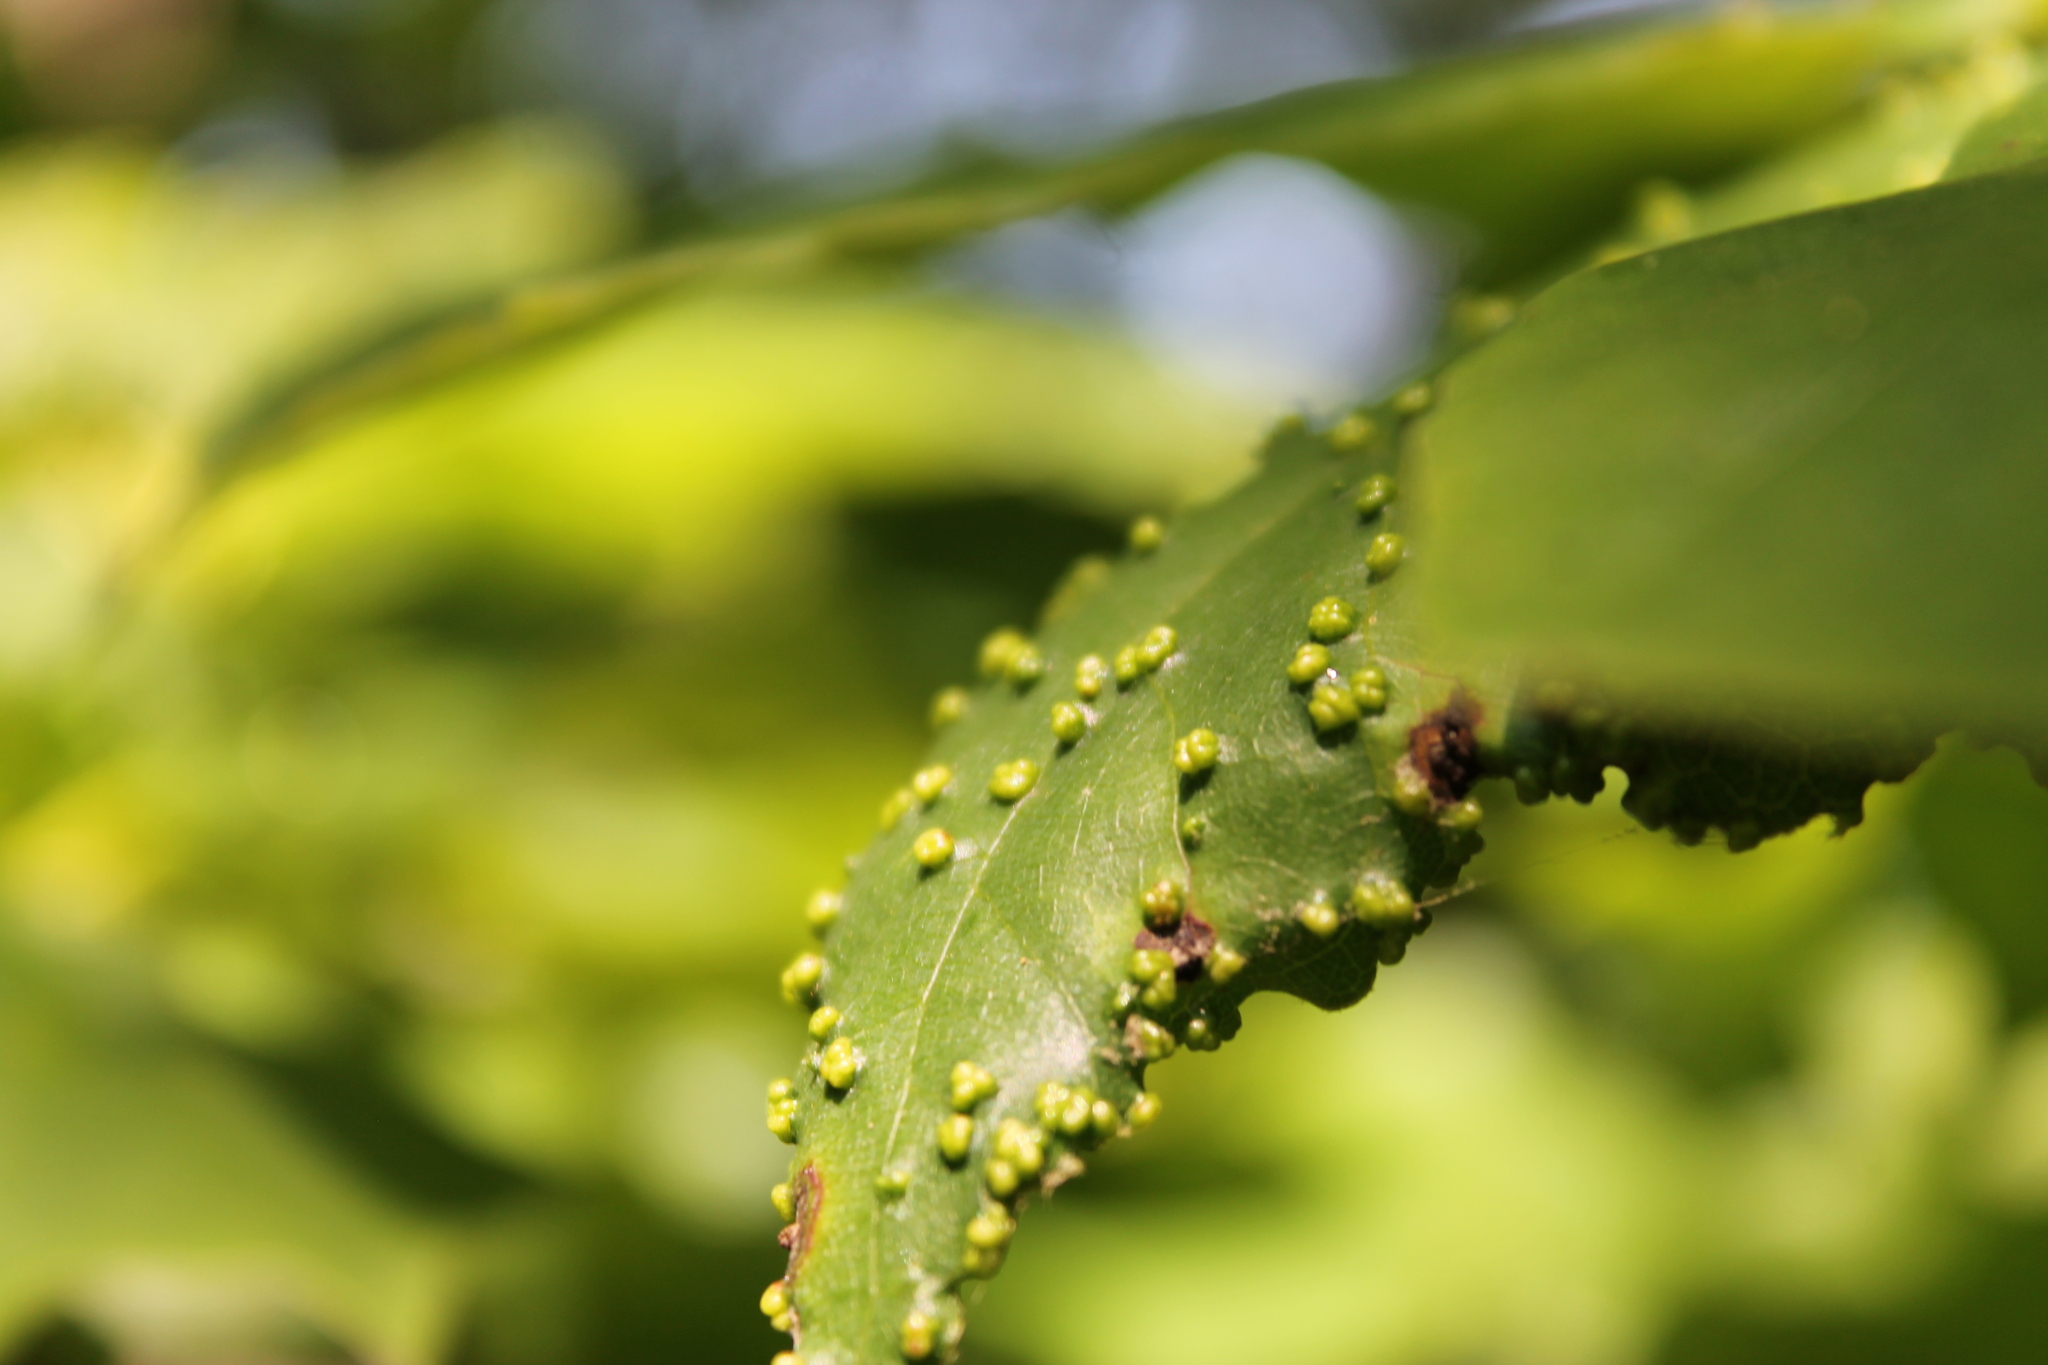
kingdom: Animalia
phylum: Arthropoda
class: Arachnida
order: Trombidiformes
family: Eriophyidae
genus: Aceria
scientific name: Aceria
